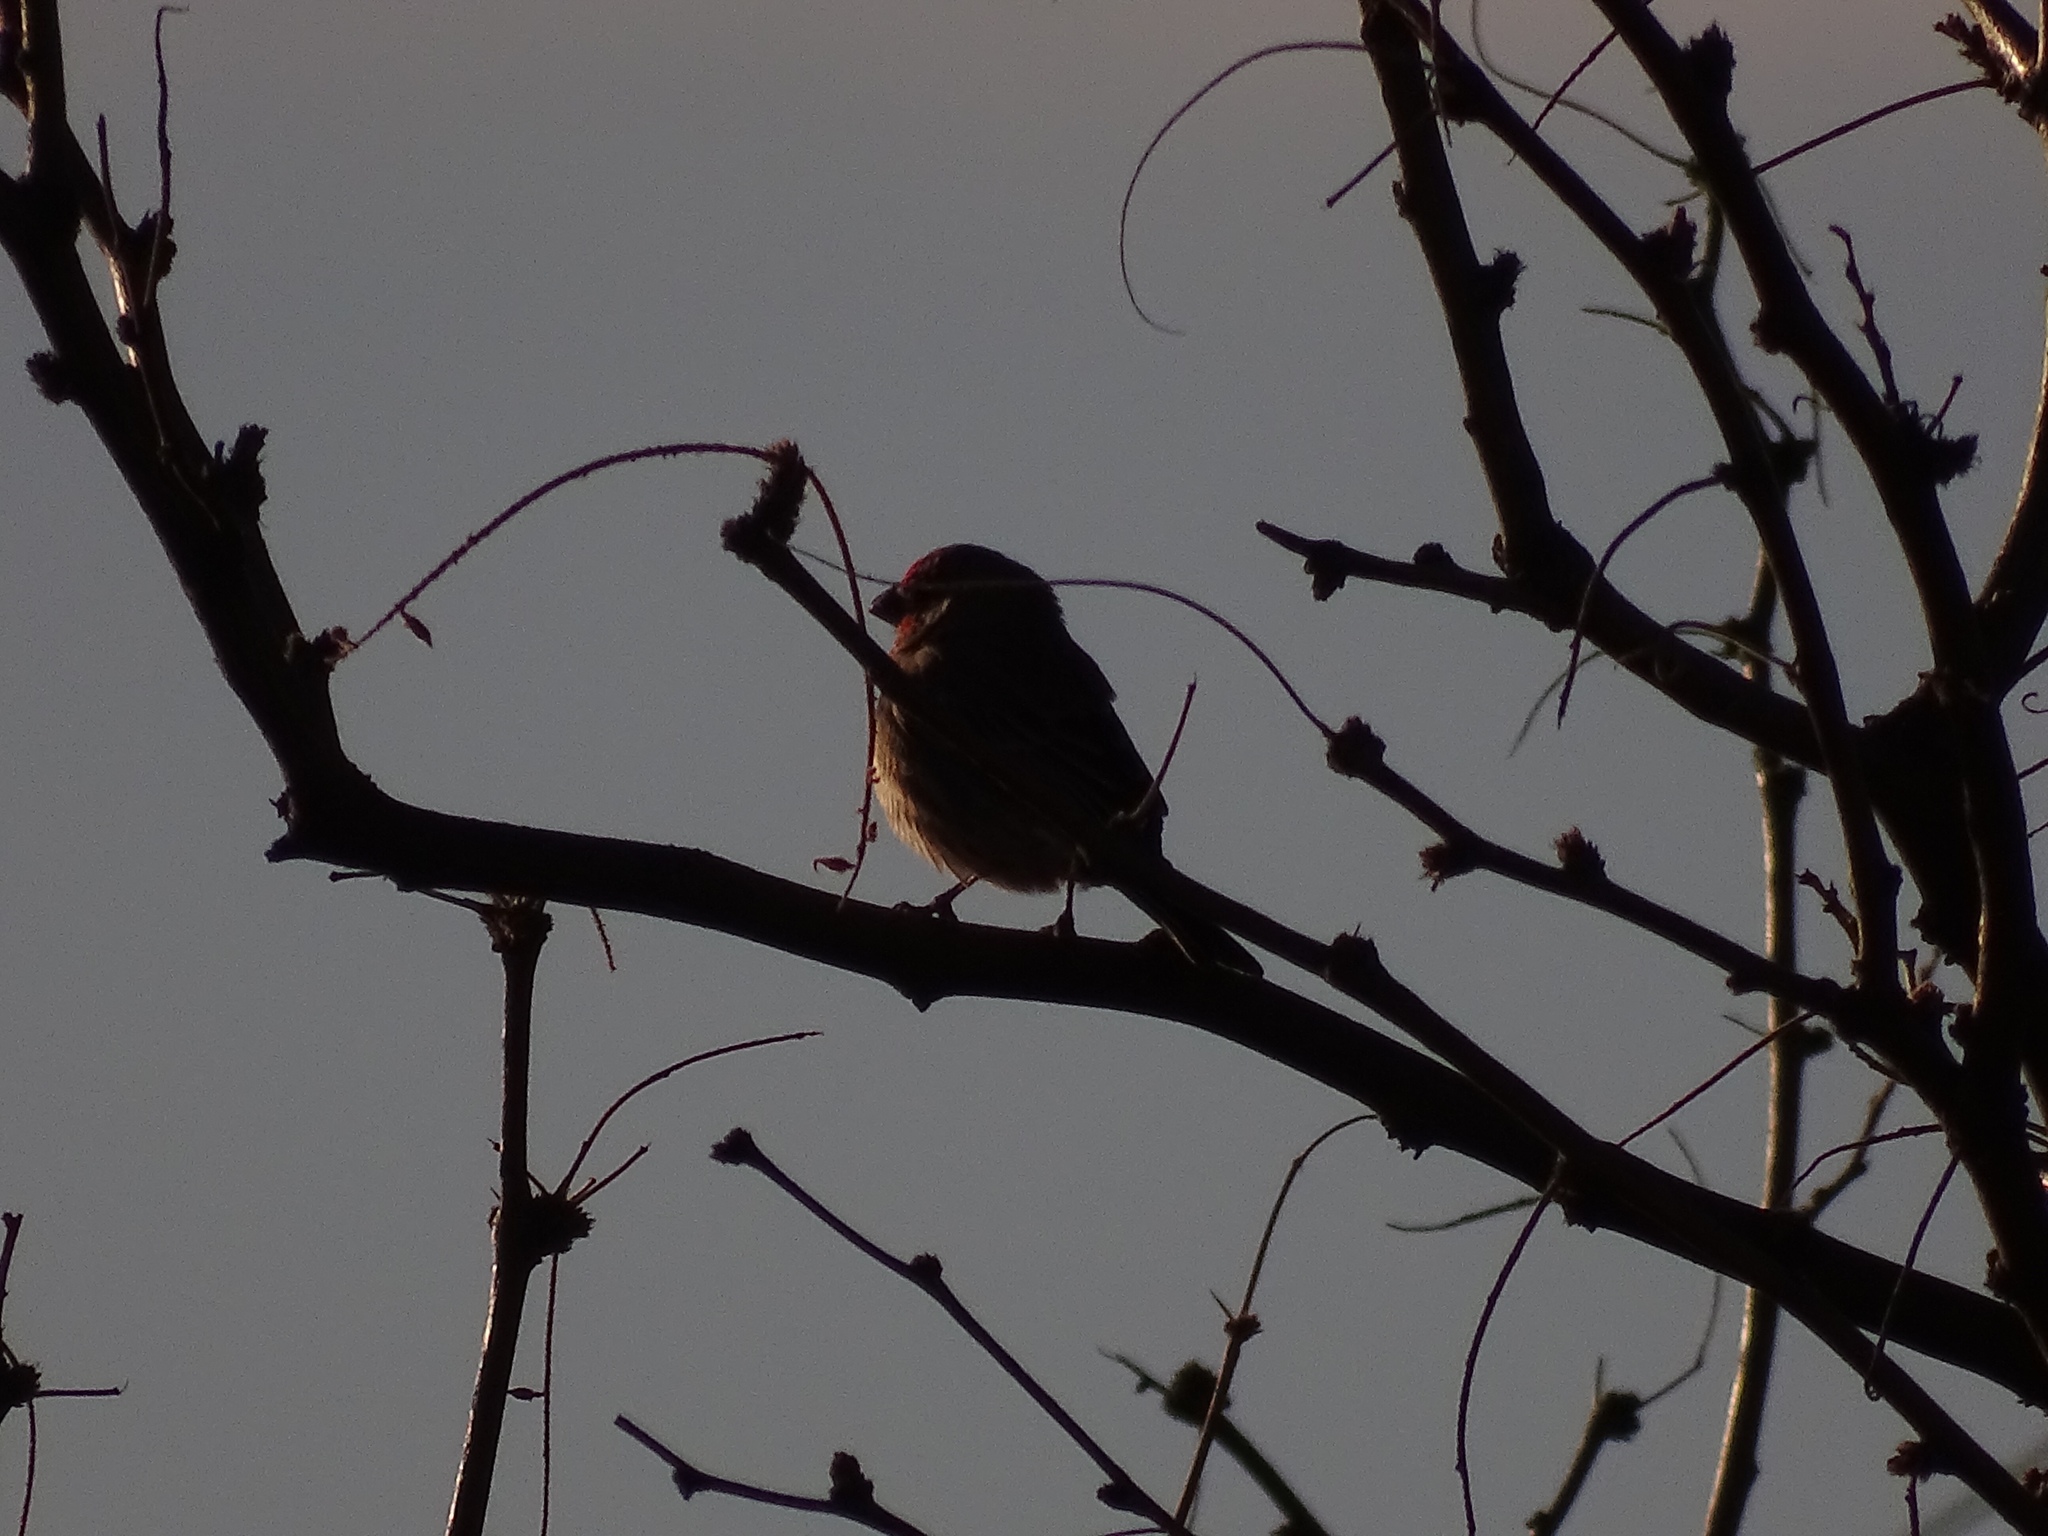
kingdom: Animalia
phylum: Chordata
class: Aves
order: Passeriformes
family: Fringillidae
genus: Haemorhous
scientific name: Haemorhous mexicanus
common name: House finch
